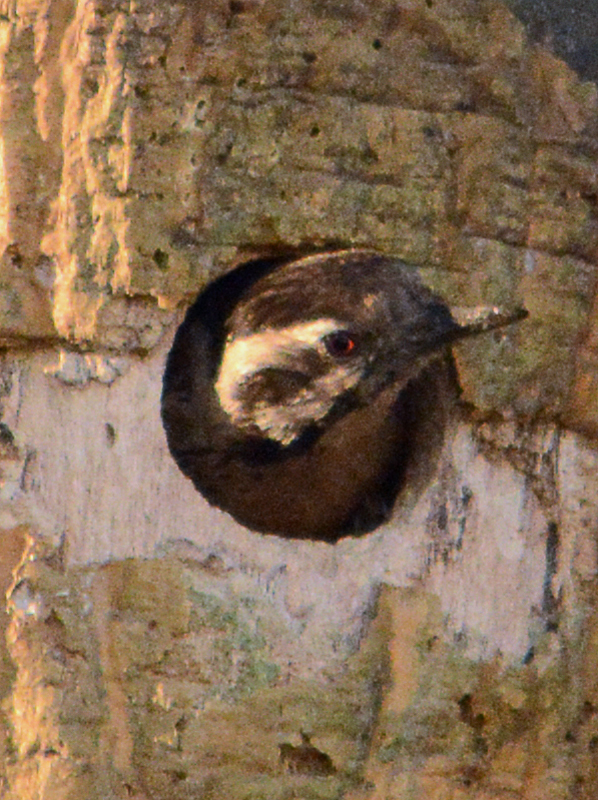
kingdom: Animalia
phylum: Chordata
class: Aves
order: Piciformes
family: Picidae
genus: Dryobates
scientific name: Dryobates scalaris
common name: Ladder-backed woodpecker
